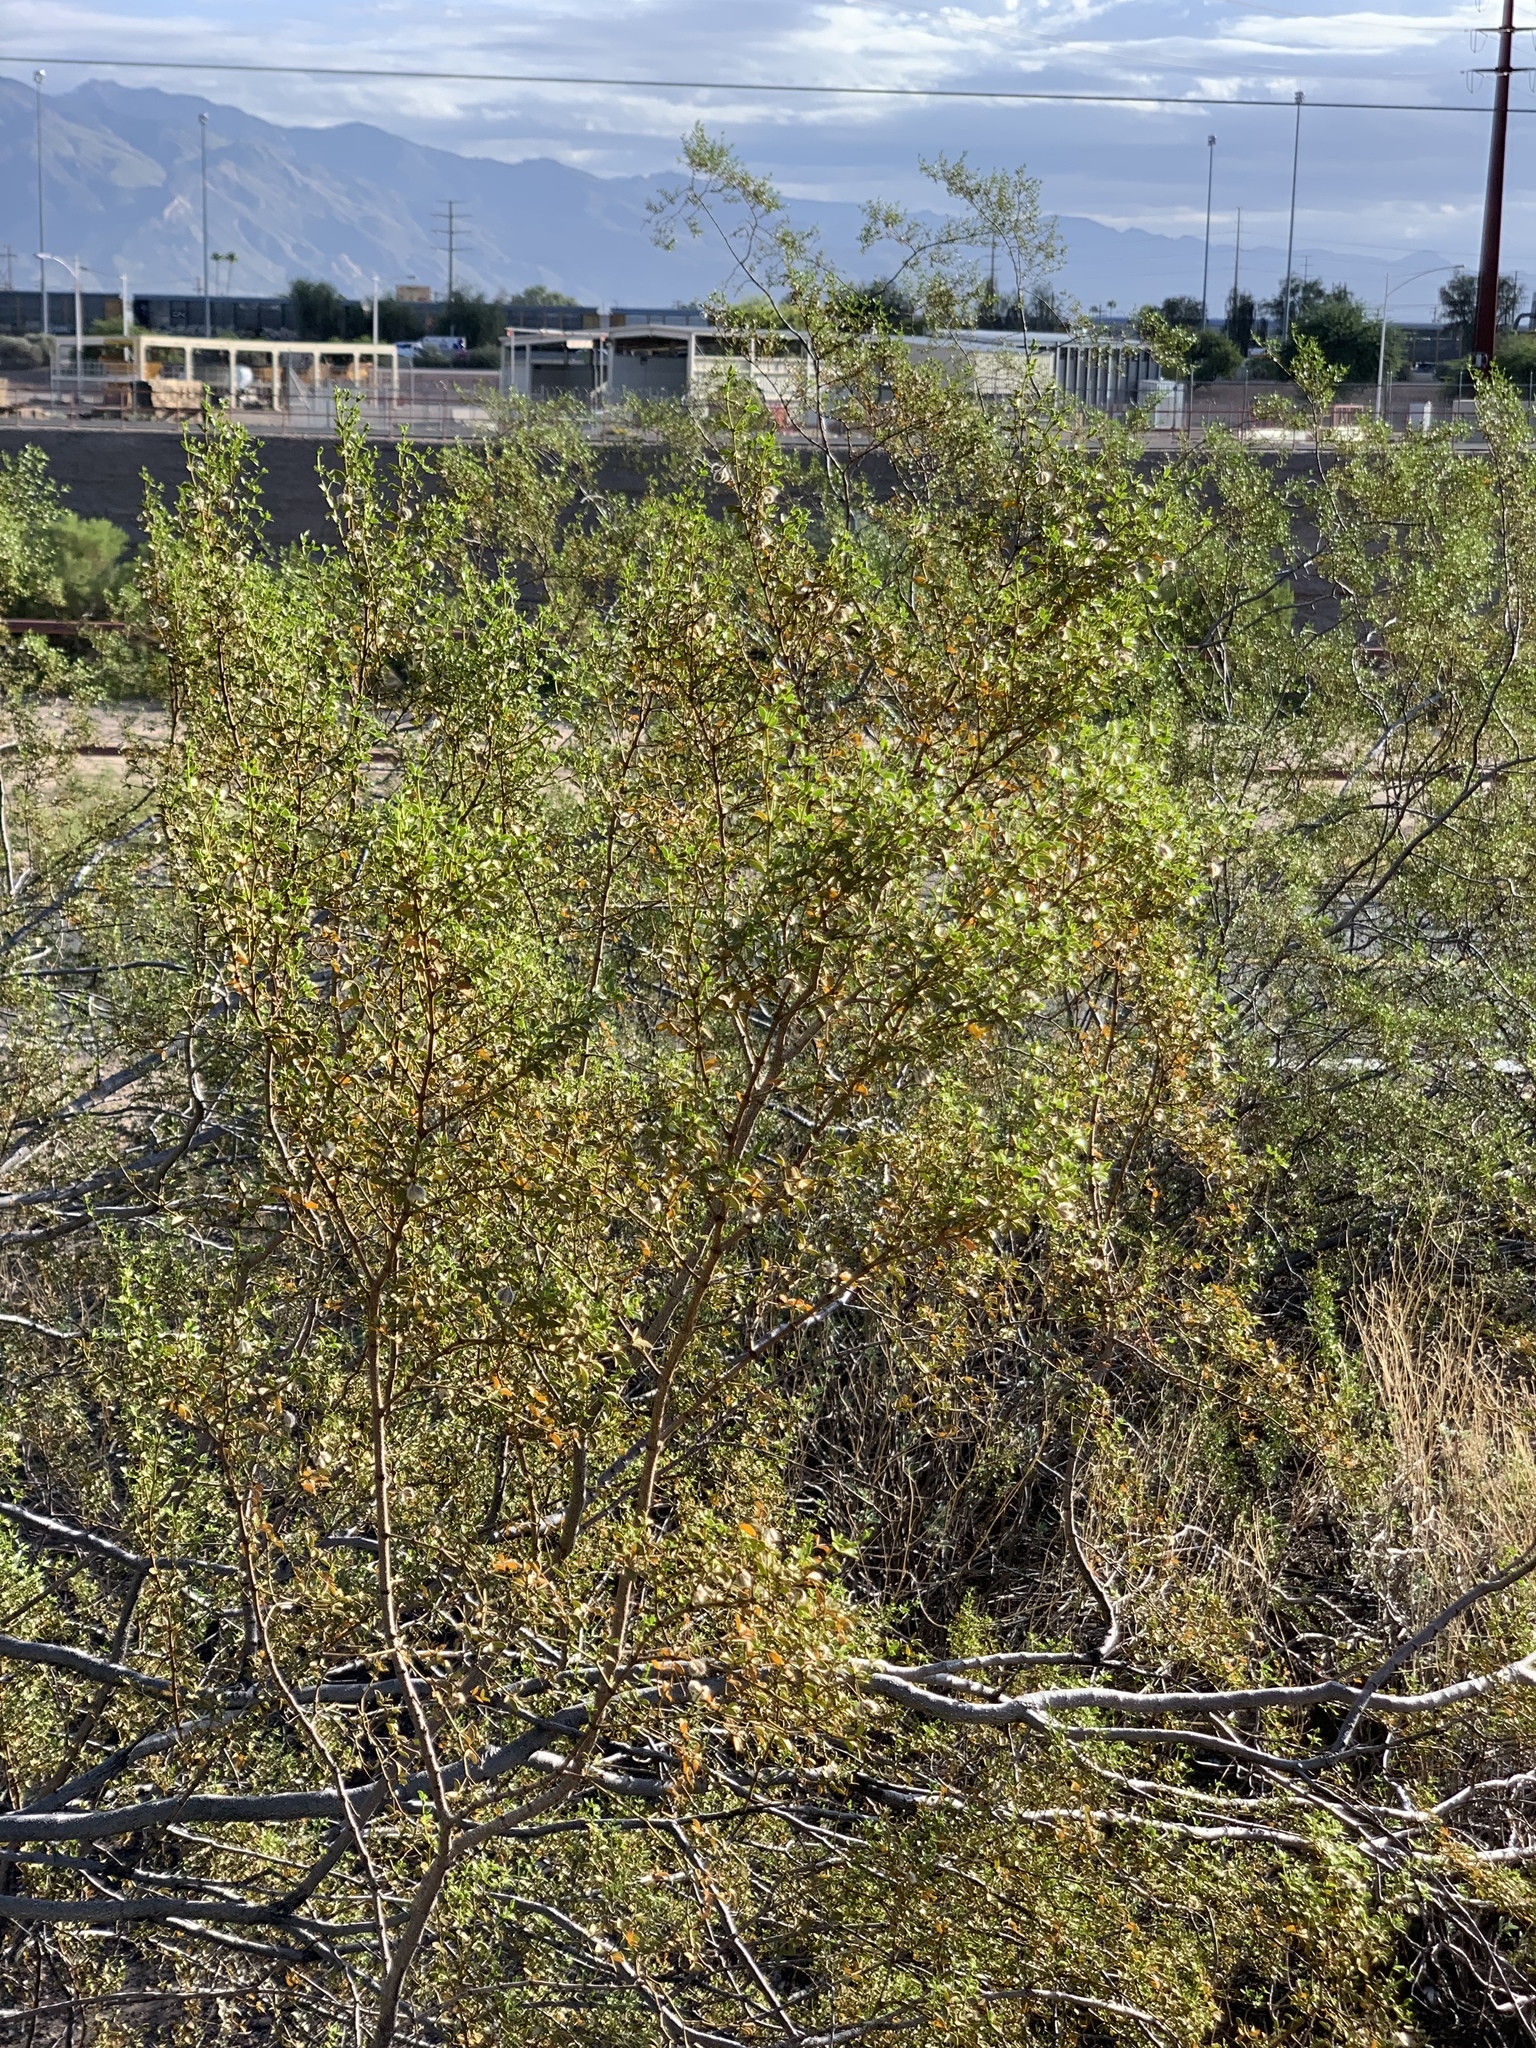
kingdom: Plantae
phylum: Tracheophyta
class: Magnoliopsida
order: Zygophyllales
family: Zygophyllaceae
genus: Larrea
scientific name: Larrea tridentata
